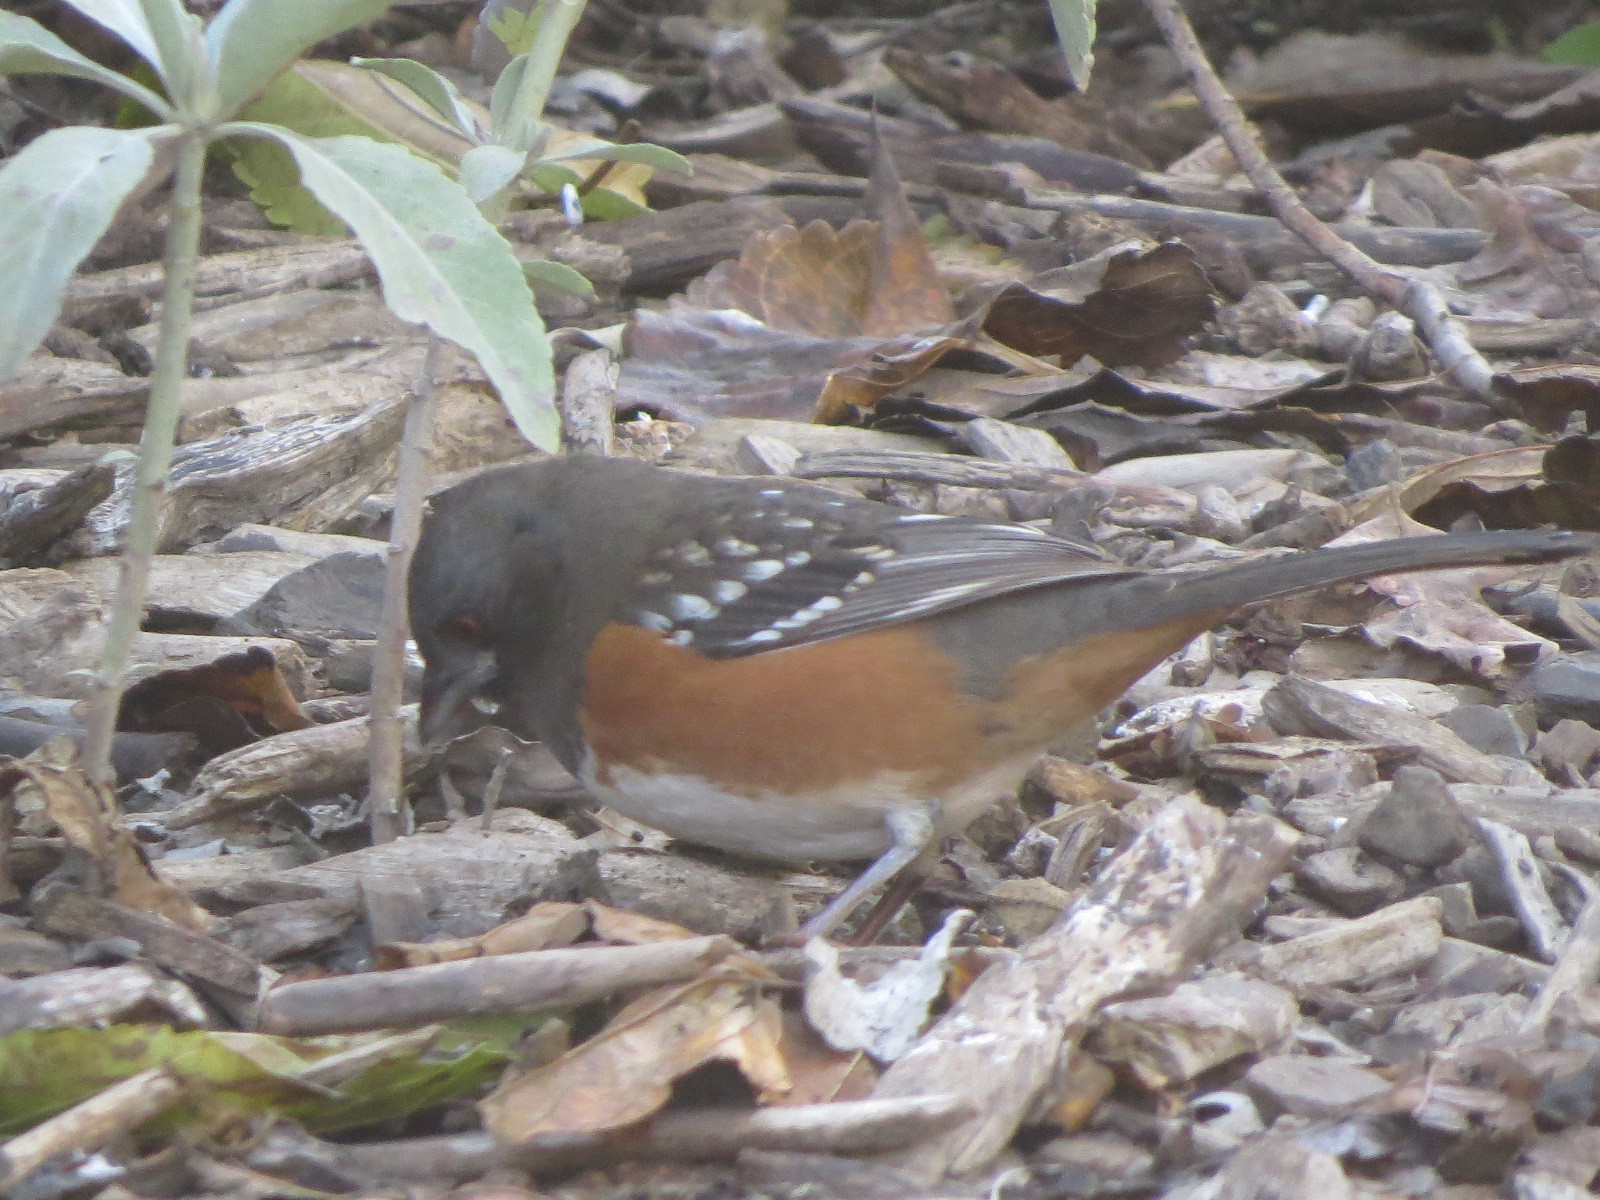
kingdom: Animalia
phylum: Chordata
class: Aves
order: Passeriformes
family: Passerellidae
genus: Pipilo
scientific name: Pipilo maculatus
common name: Spotted towhee
